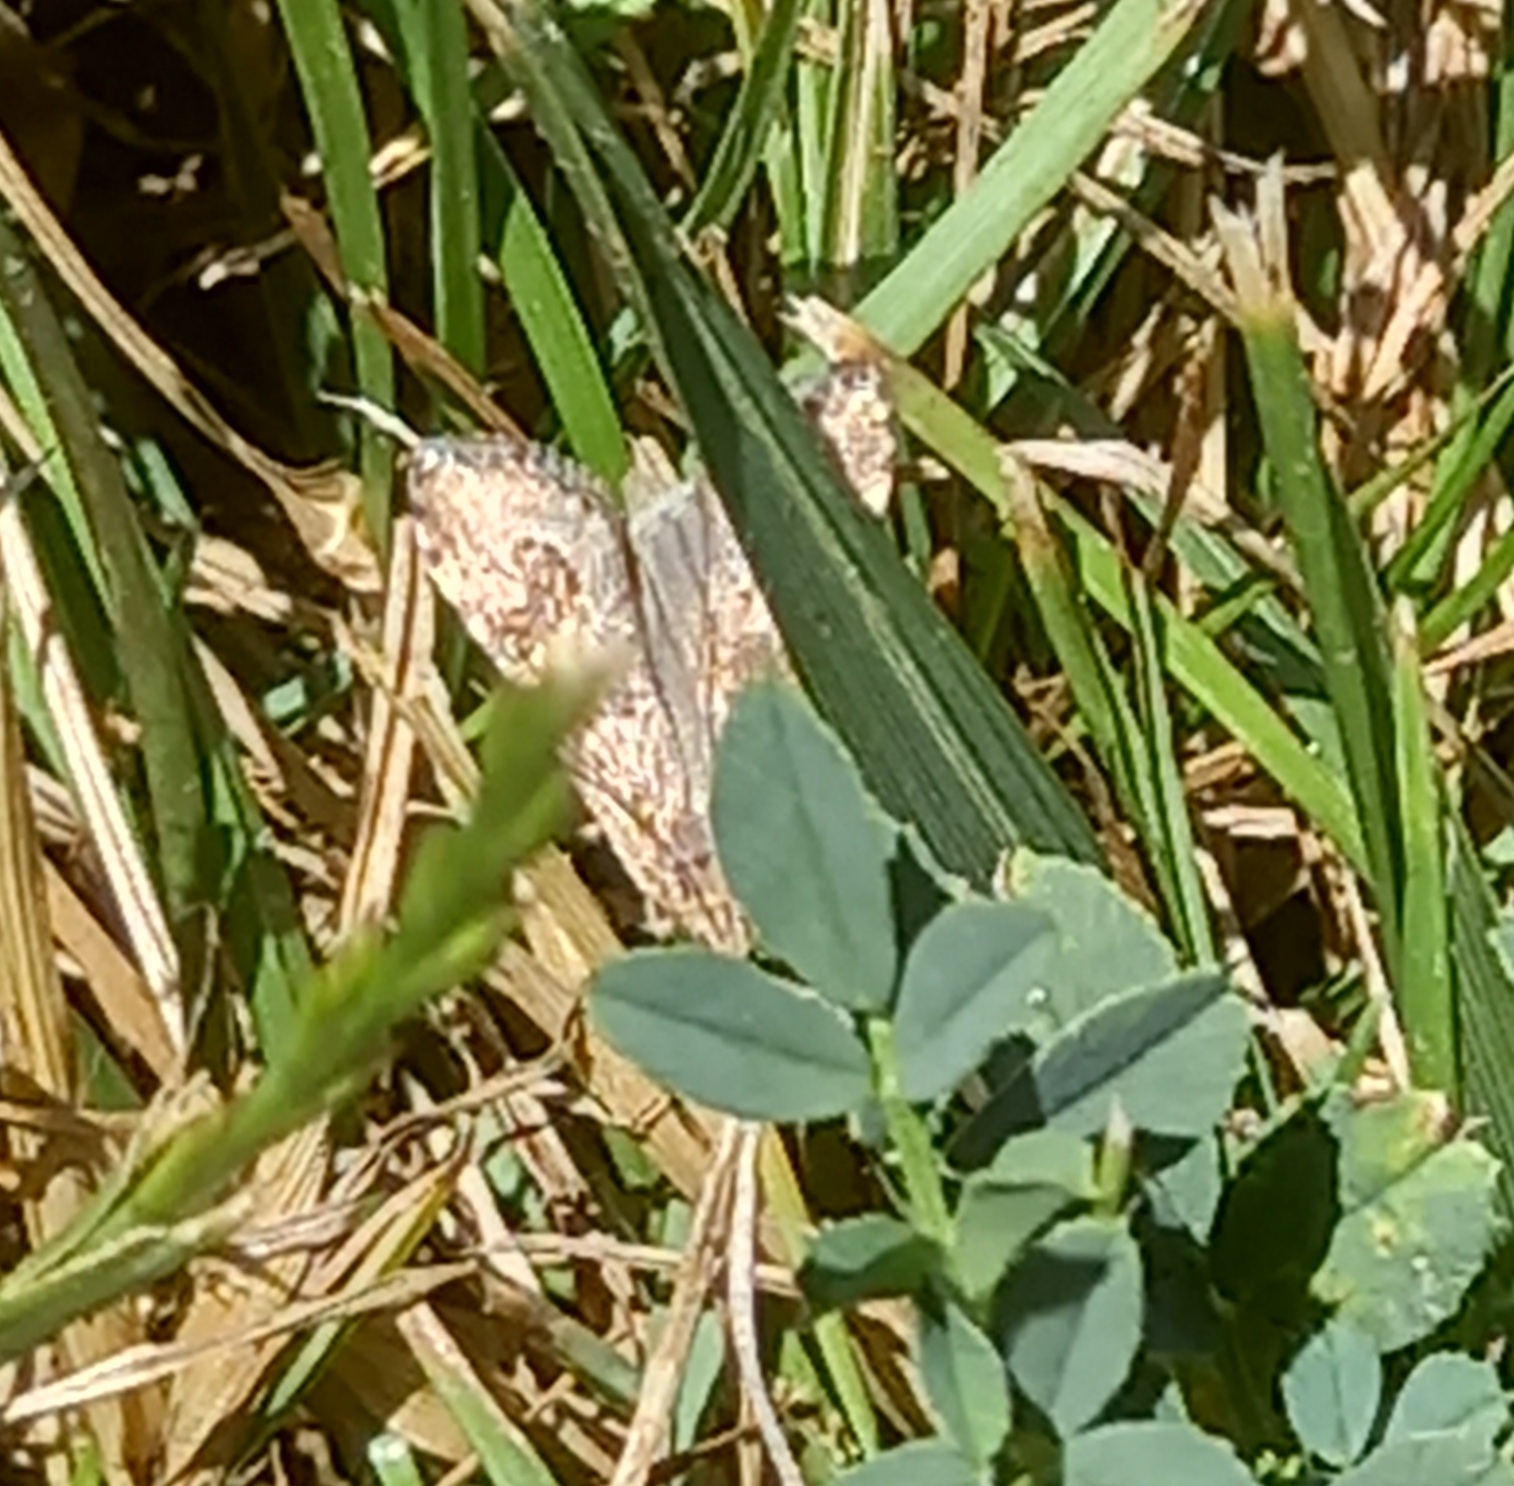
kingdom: Animalia
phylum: Arthropoda
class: Insecta
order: Lepidoptera
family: Crambidae
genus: Nomophila
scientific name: Nomophila noctuella
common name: Rush veneer
